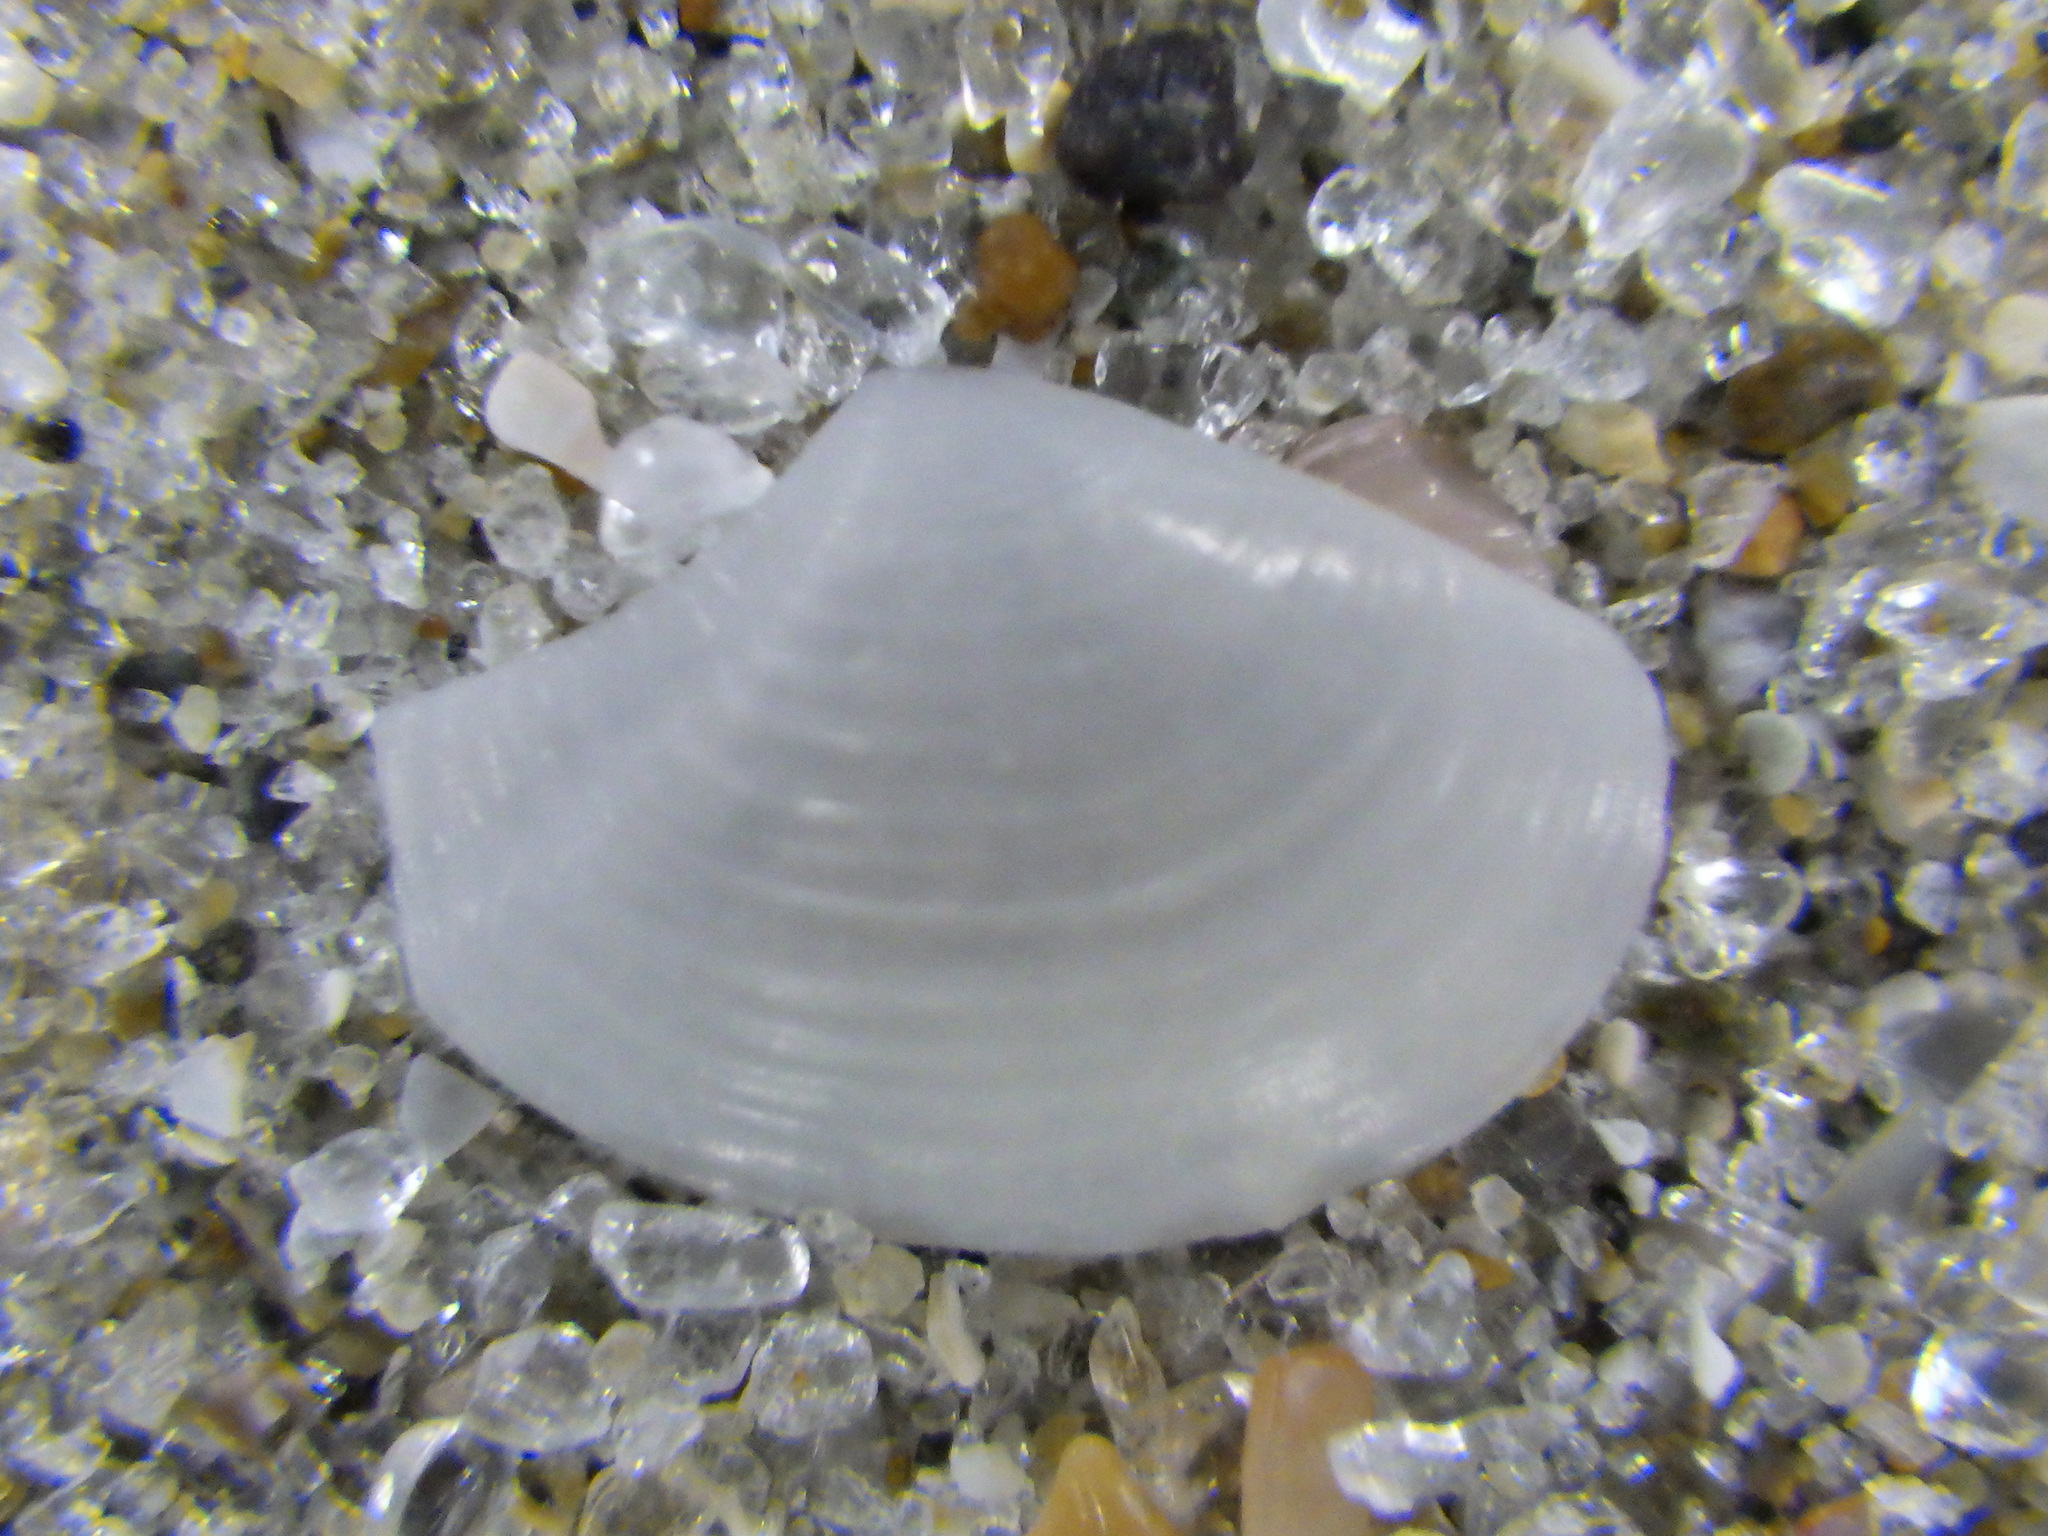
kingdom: Animalia
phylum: Mollusca
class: Bivalvia
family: Myochamidae
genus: Myadora
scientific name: Myadora boltoni
